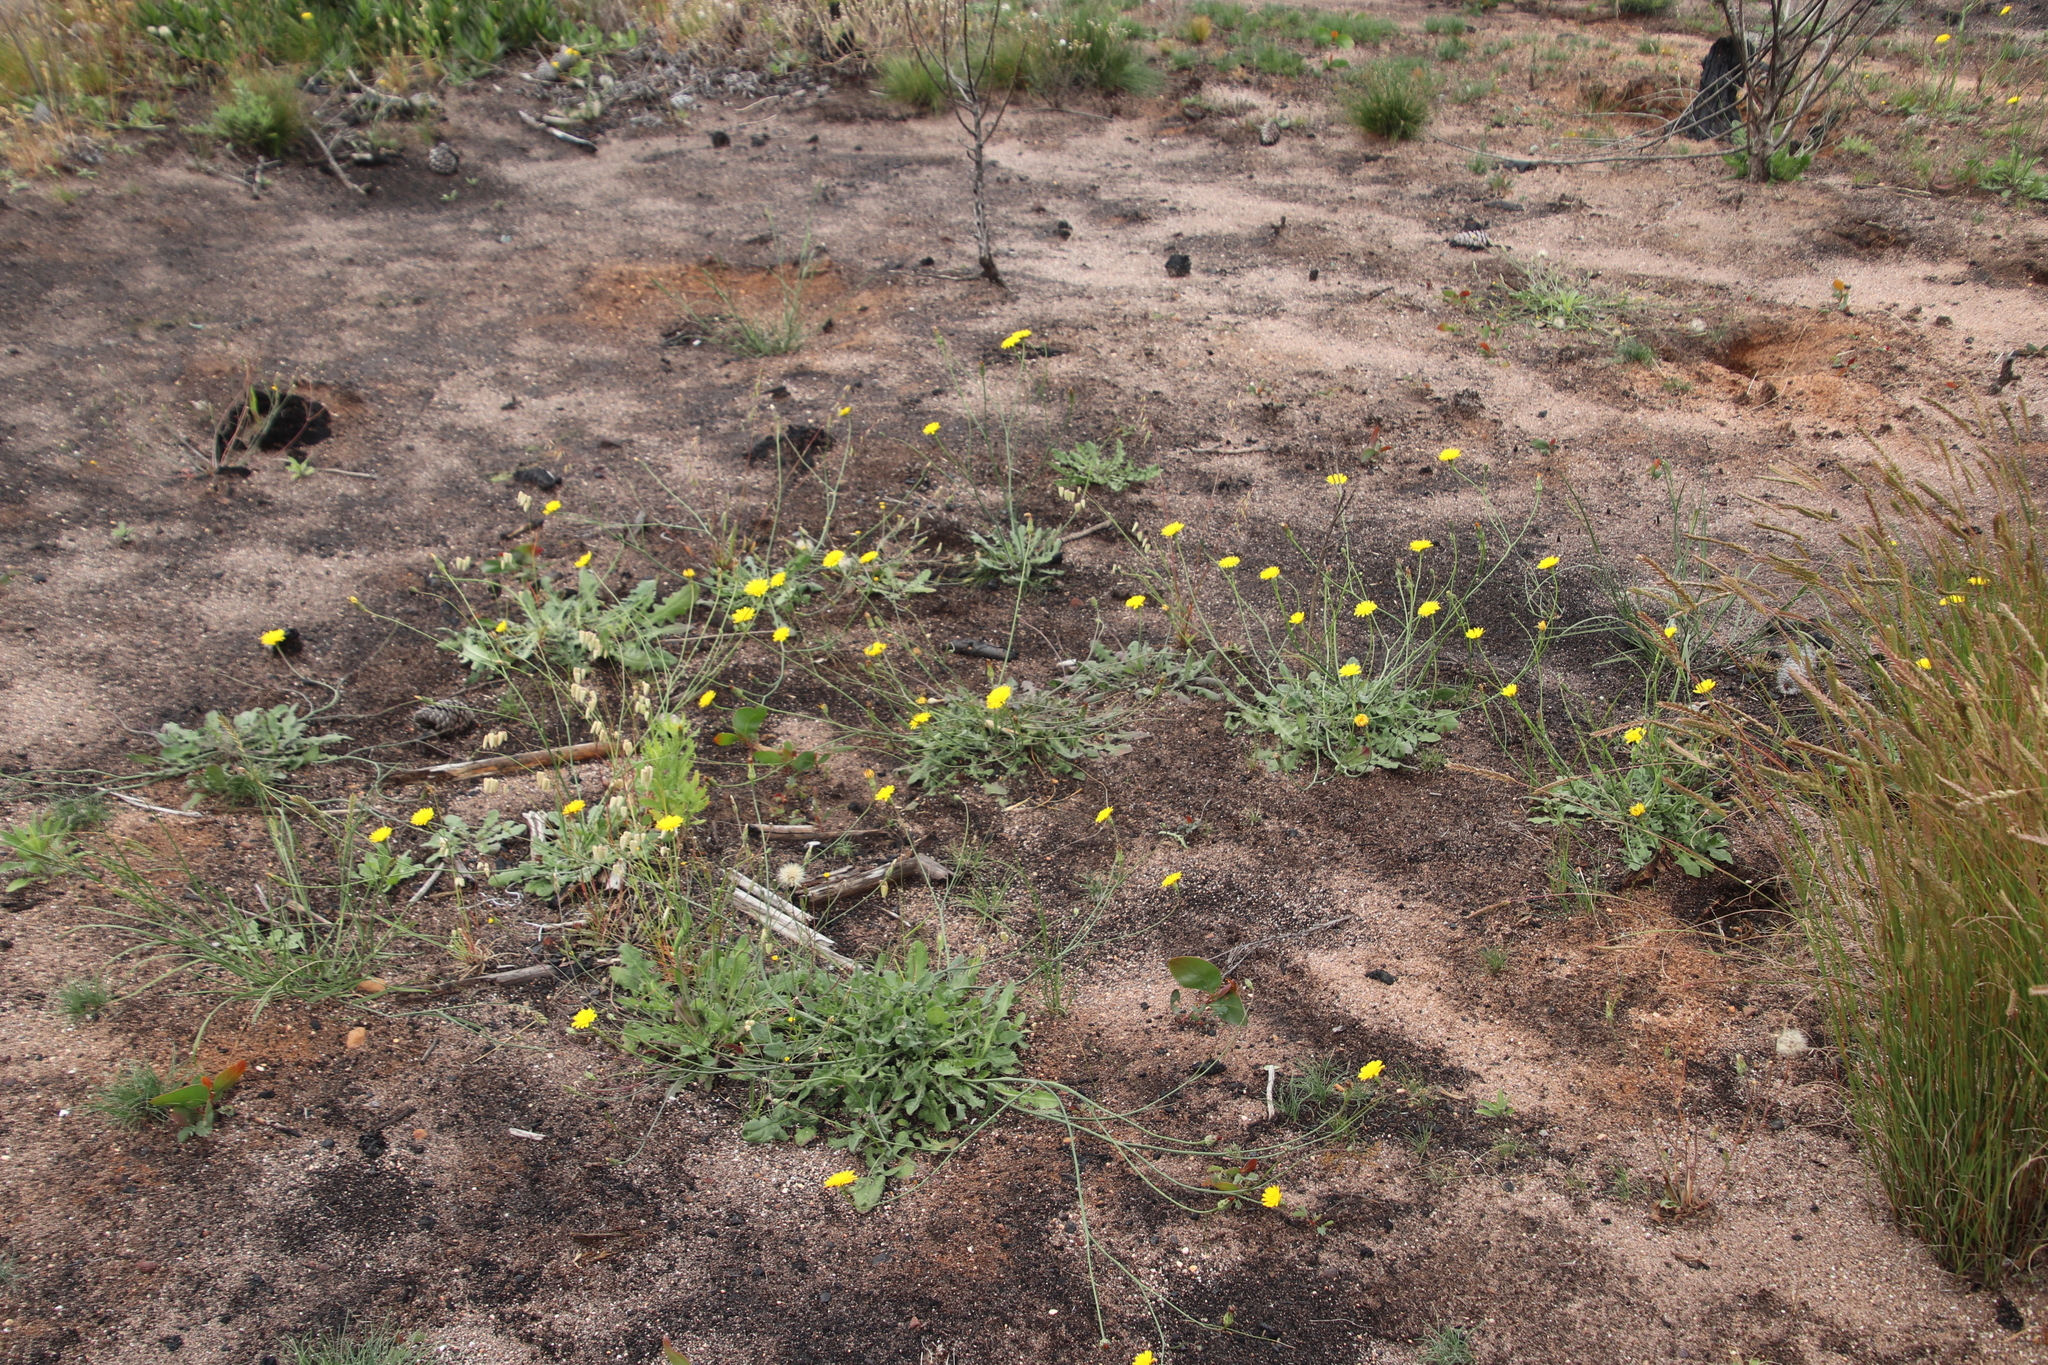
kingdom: Plantae
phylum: Tracheophyta
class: Magnoliopsida
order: Asterales
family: Asteraceae
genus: Hypochaeris
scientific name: Hypochaeris radicata
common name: Flatweed
